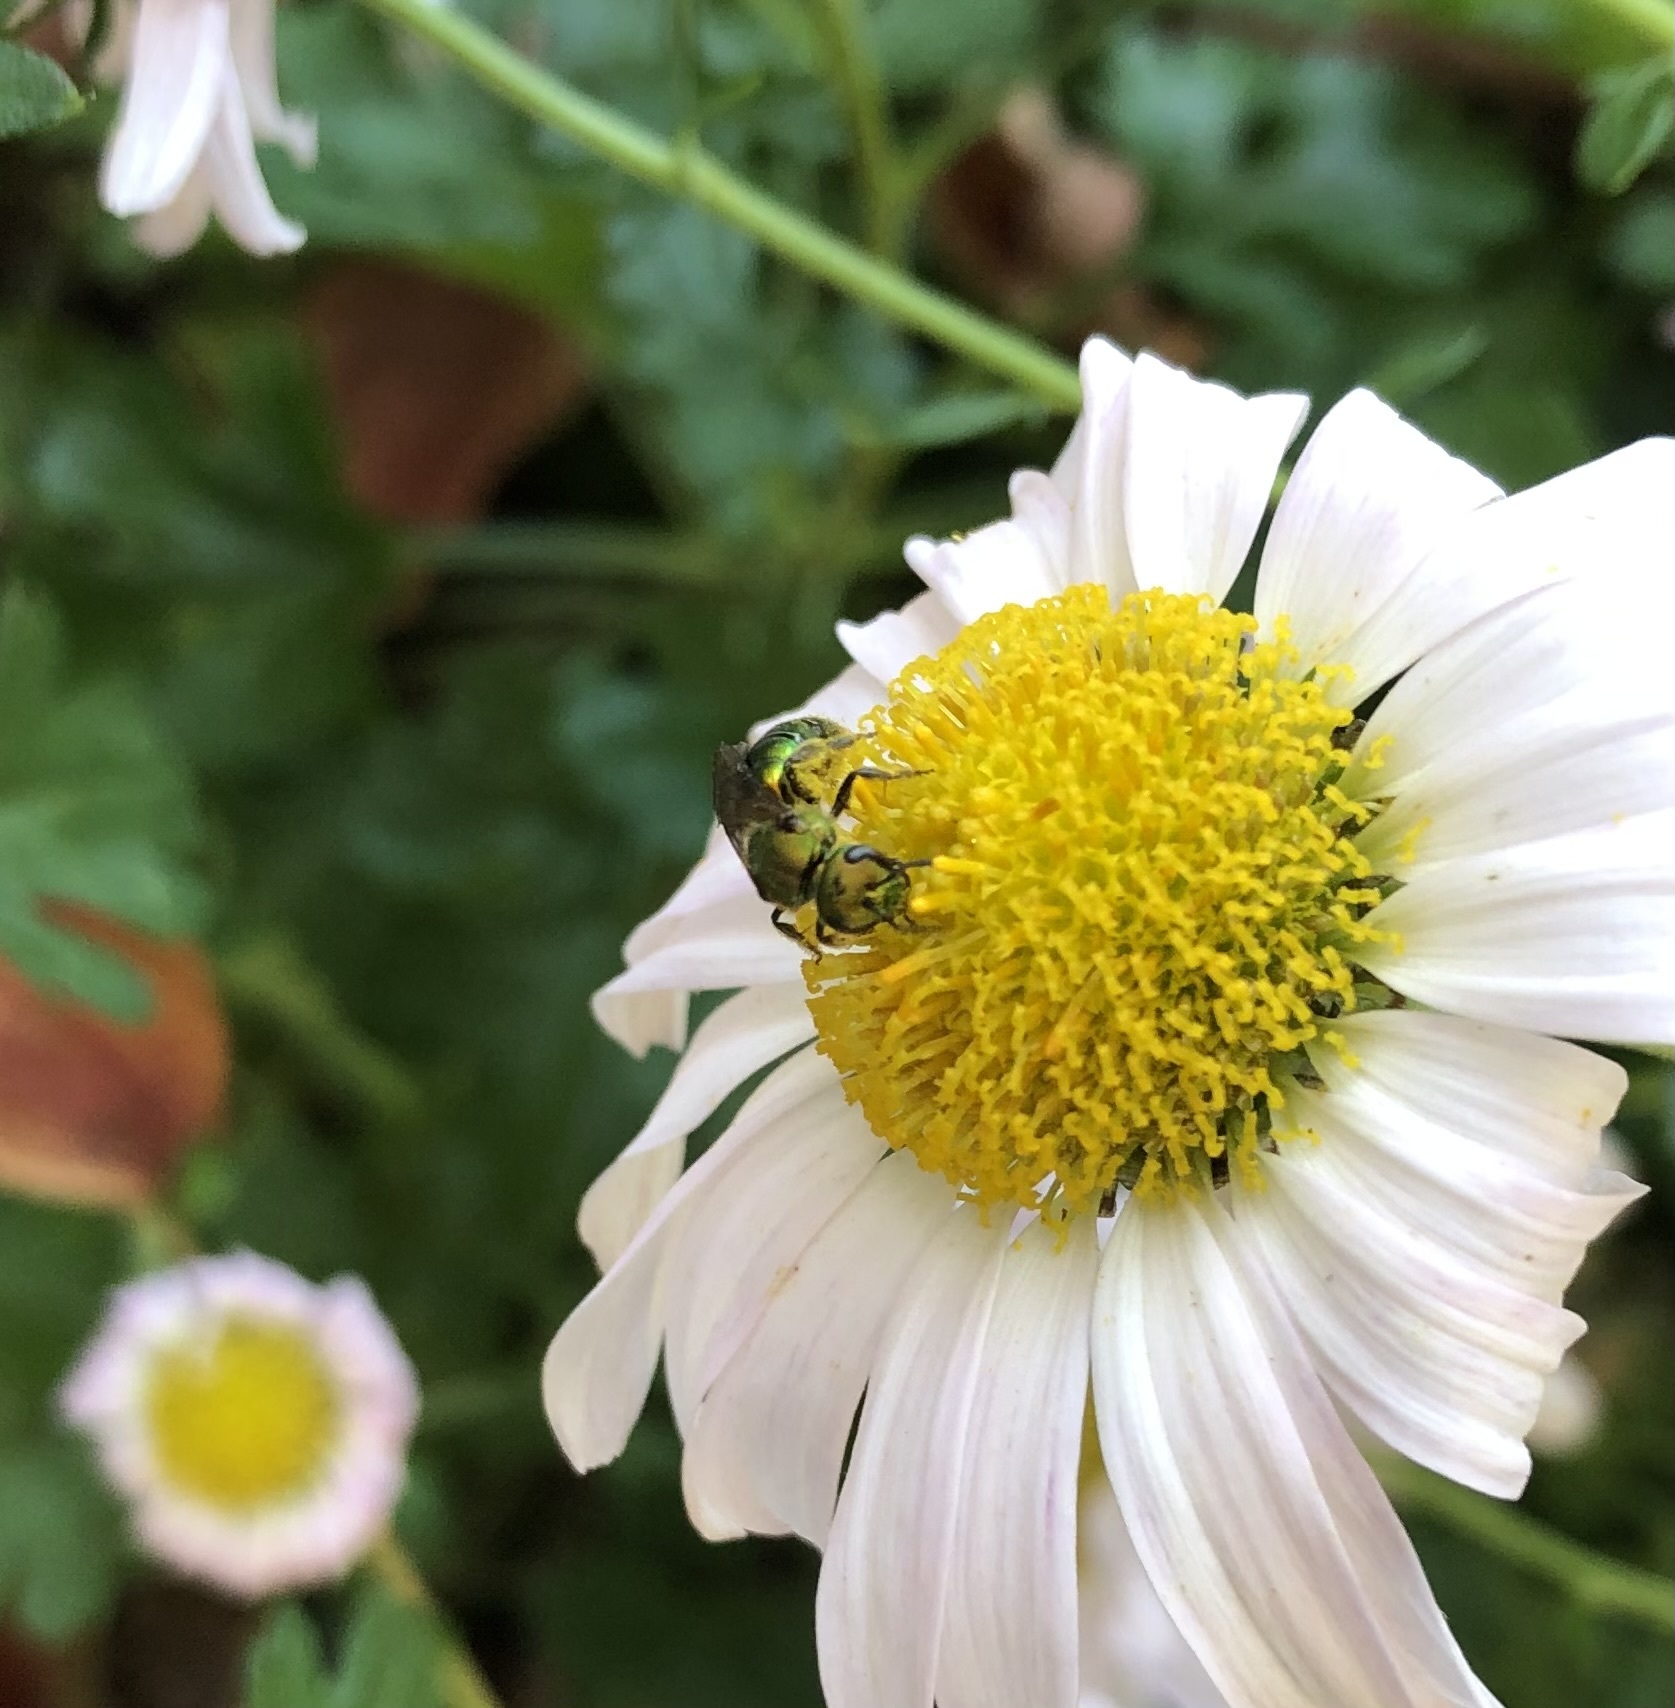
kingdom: Animalia
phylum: Arthropoda
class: Insecta
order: Hymenoptera
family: Halictidae
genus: Augochlora
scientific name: Augochlora pura
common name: Pure green sweat bee
